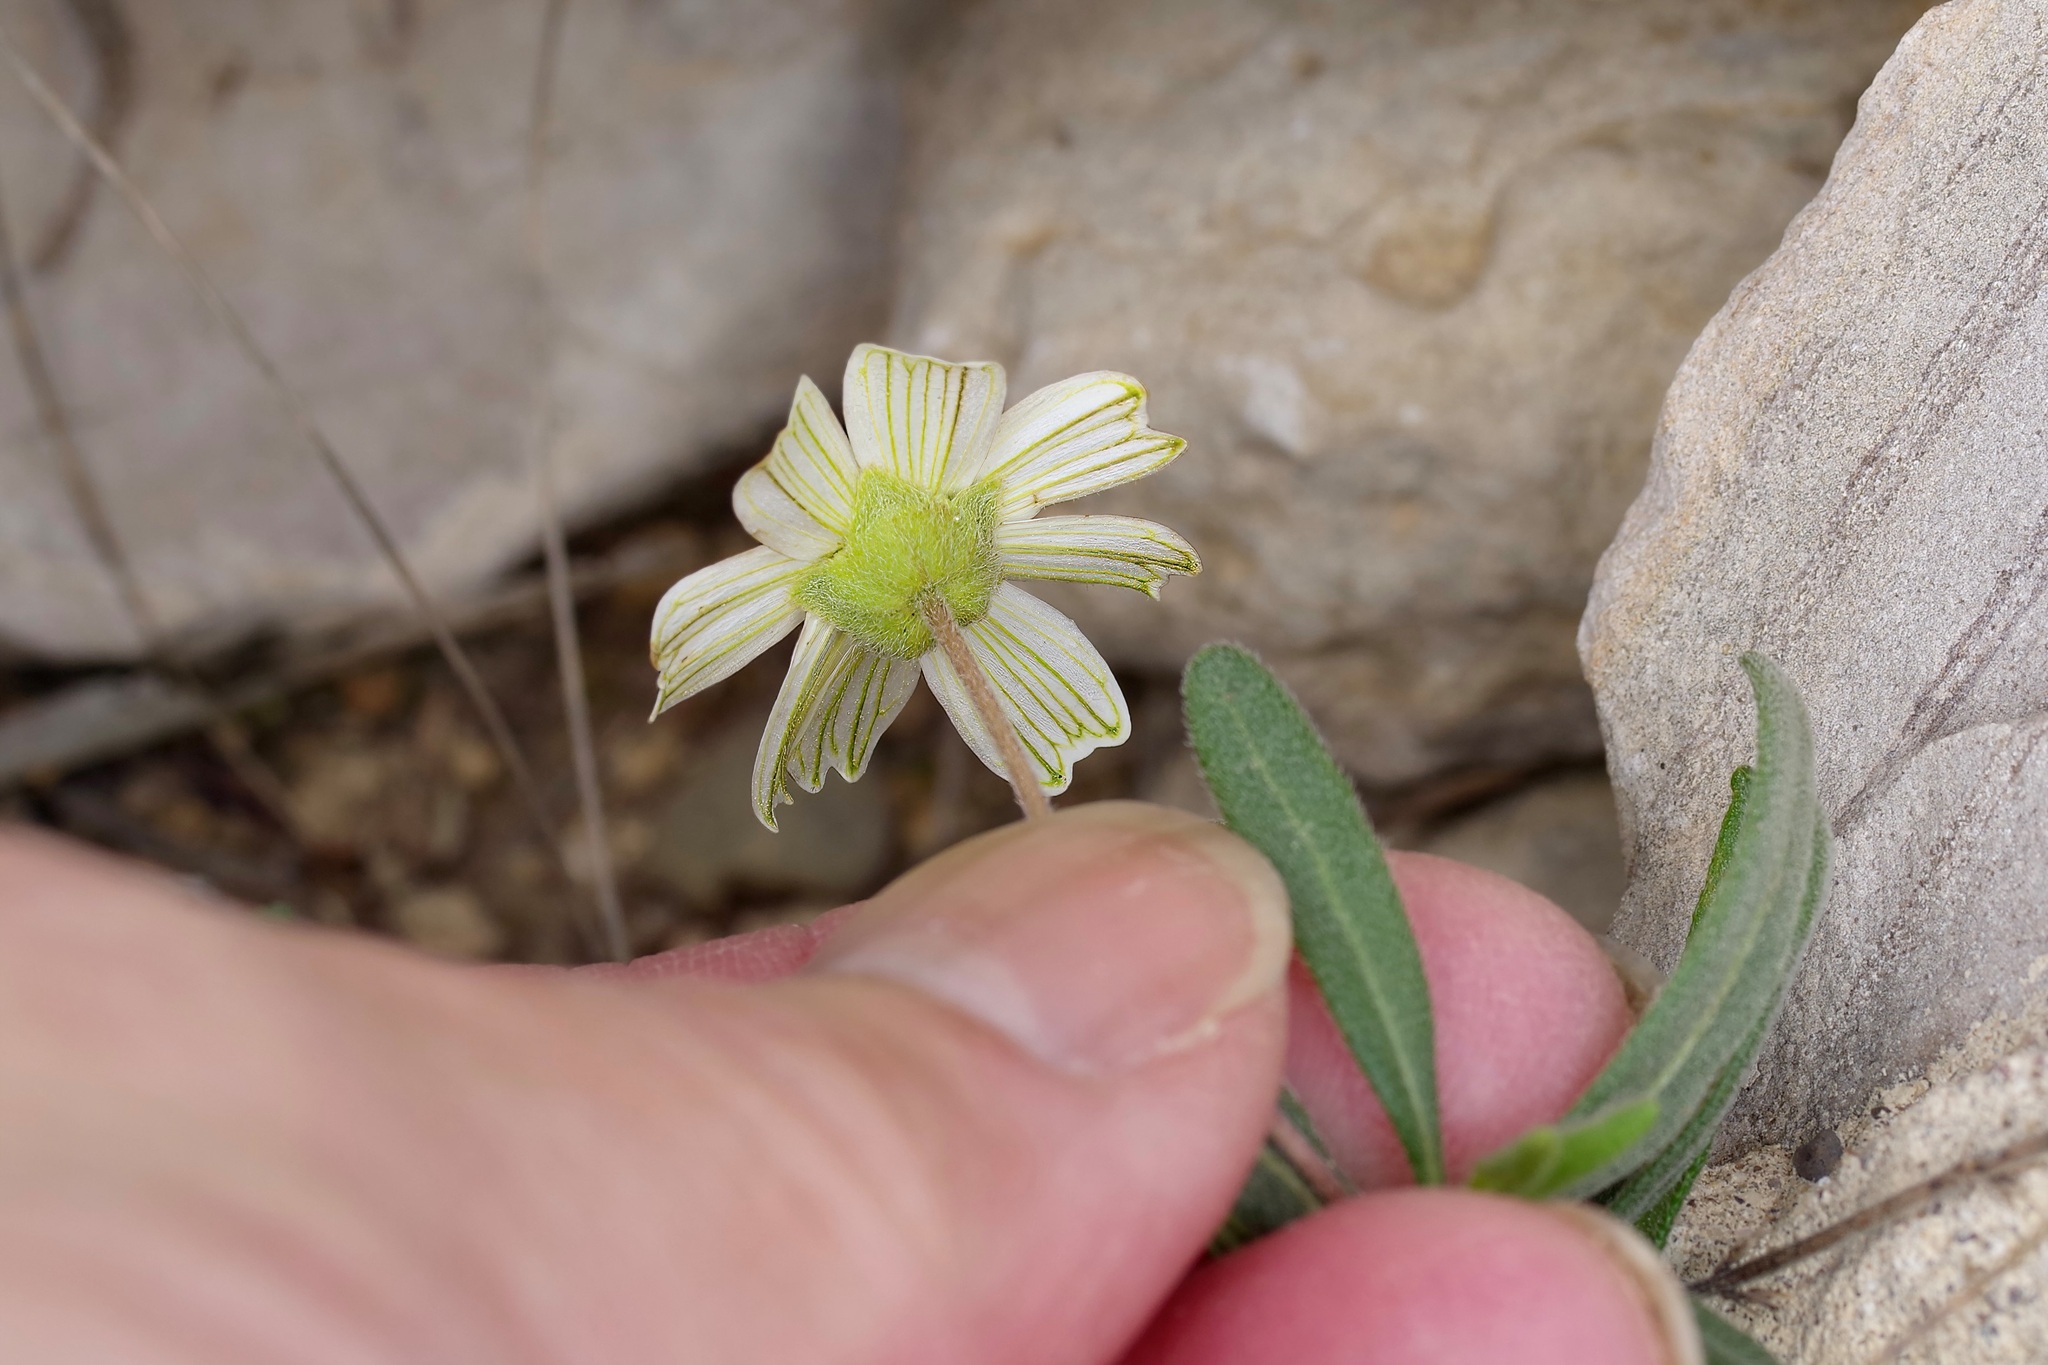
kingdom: Plantae
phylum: Tracheophyta
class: Magnoliopsida
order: Asterales
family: Asteraceae
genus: Melampodium
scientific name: Melampodium leucanthum
